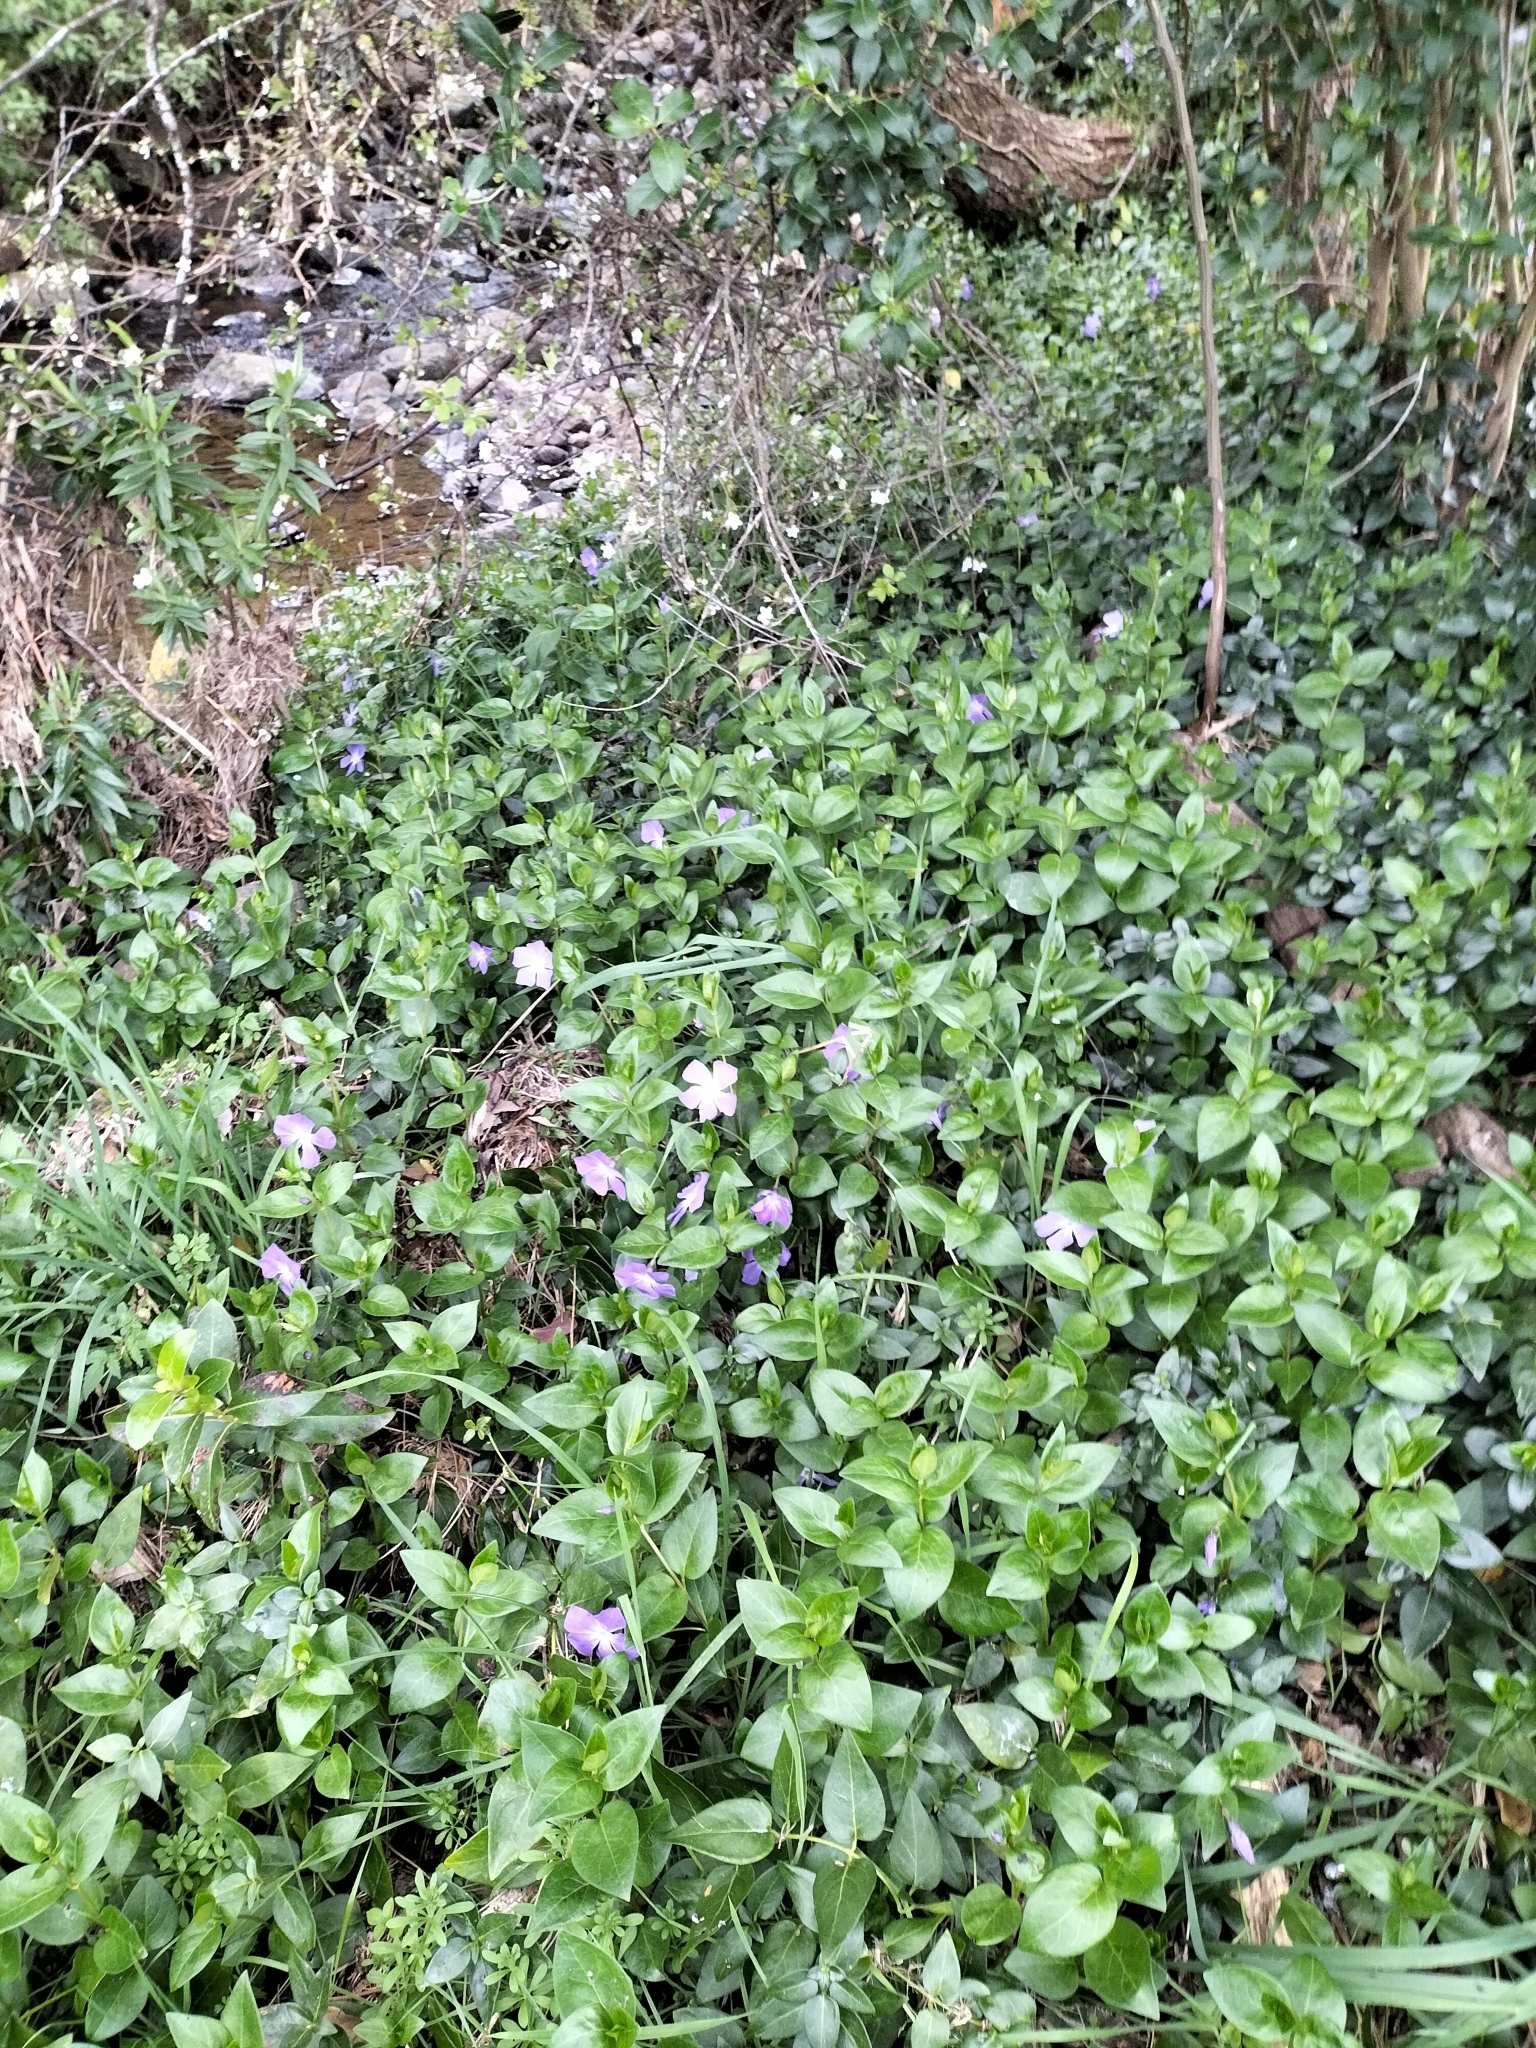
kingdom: Plantae
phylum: Tracheophyta
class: Magnoliopsida
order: Gentianales
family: Apocynaceae
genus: Vinca
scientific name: Vinca major
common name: Greater periwinkle
